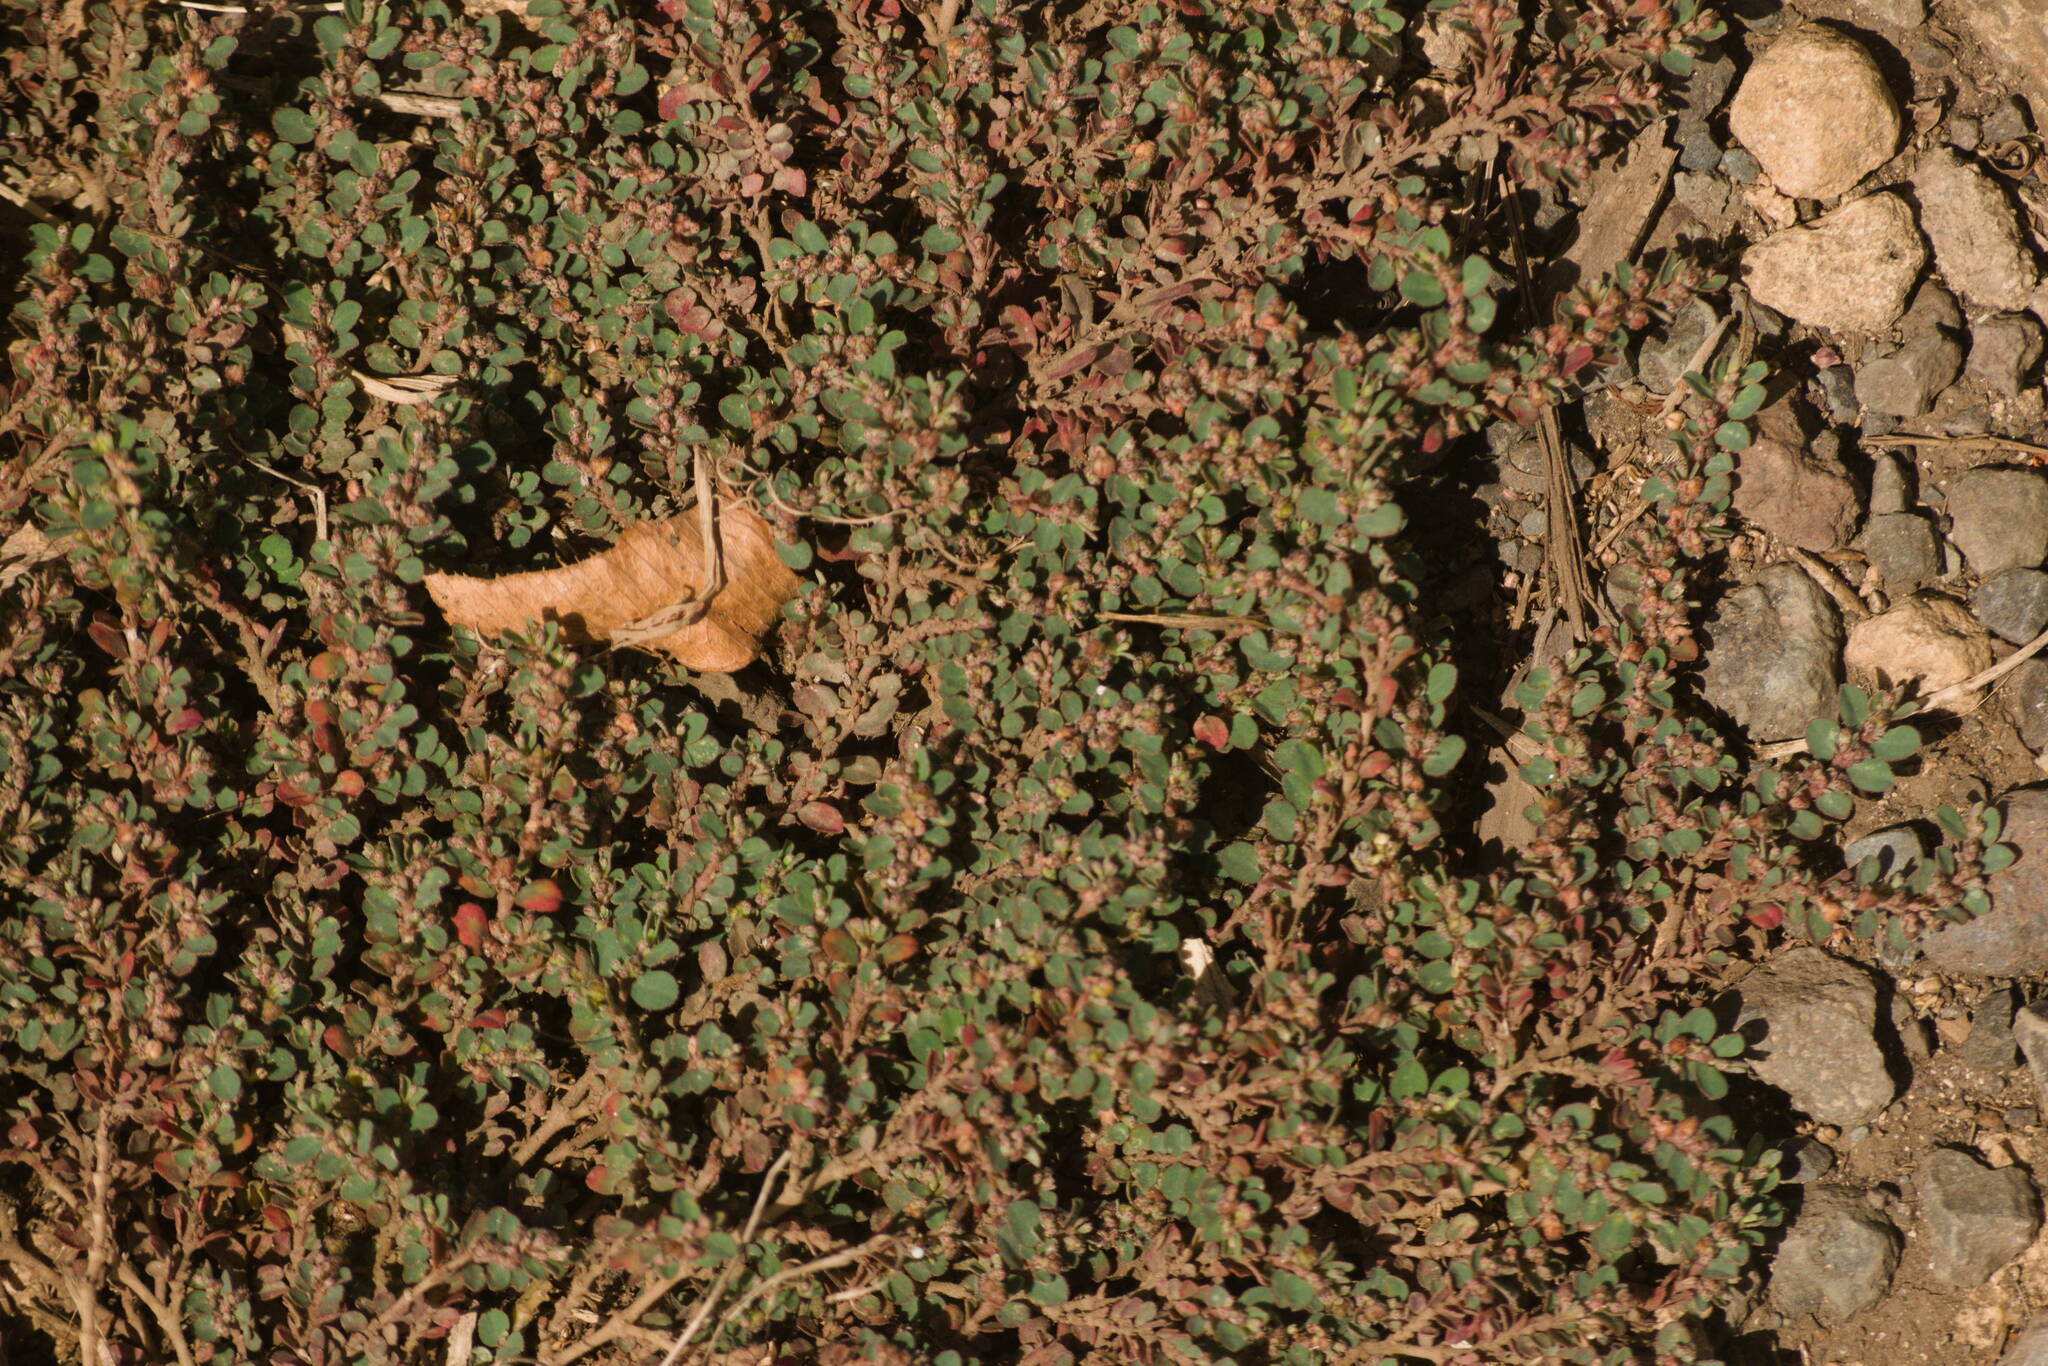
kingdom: Plantae
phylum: Tracheophyta
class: Magnoliopsida
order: Malpighiales
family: Euphorbiaceae
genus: Euphorbia
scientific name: Euphorbia prostrata
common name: Prostrate sandmat
